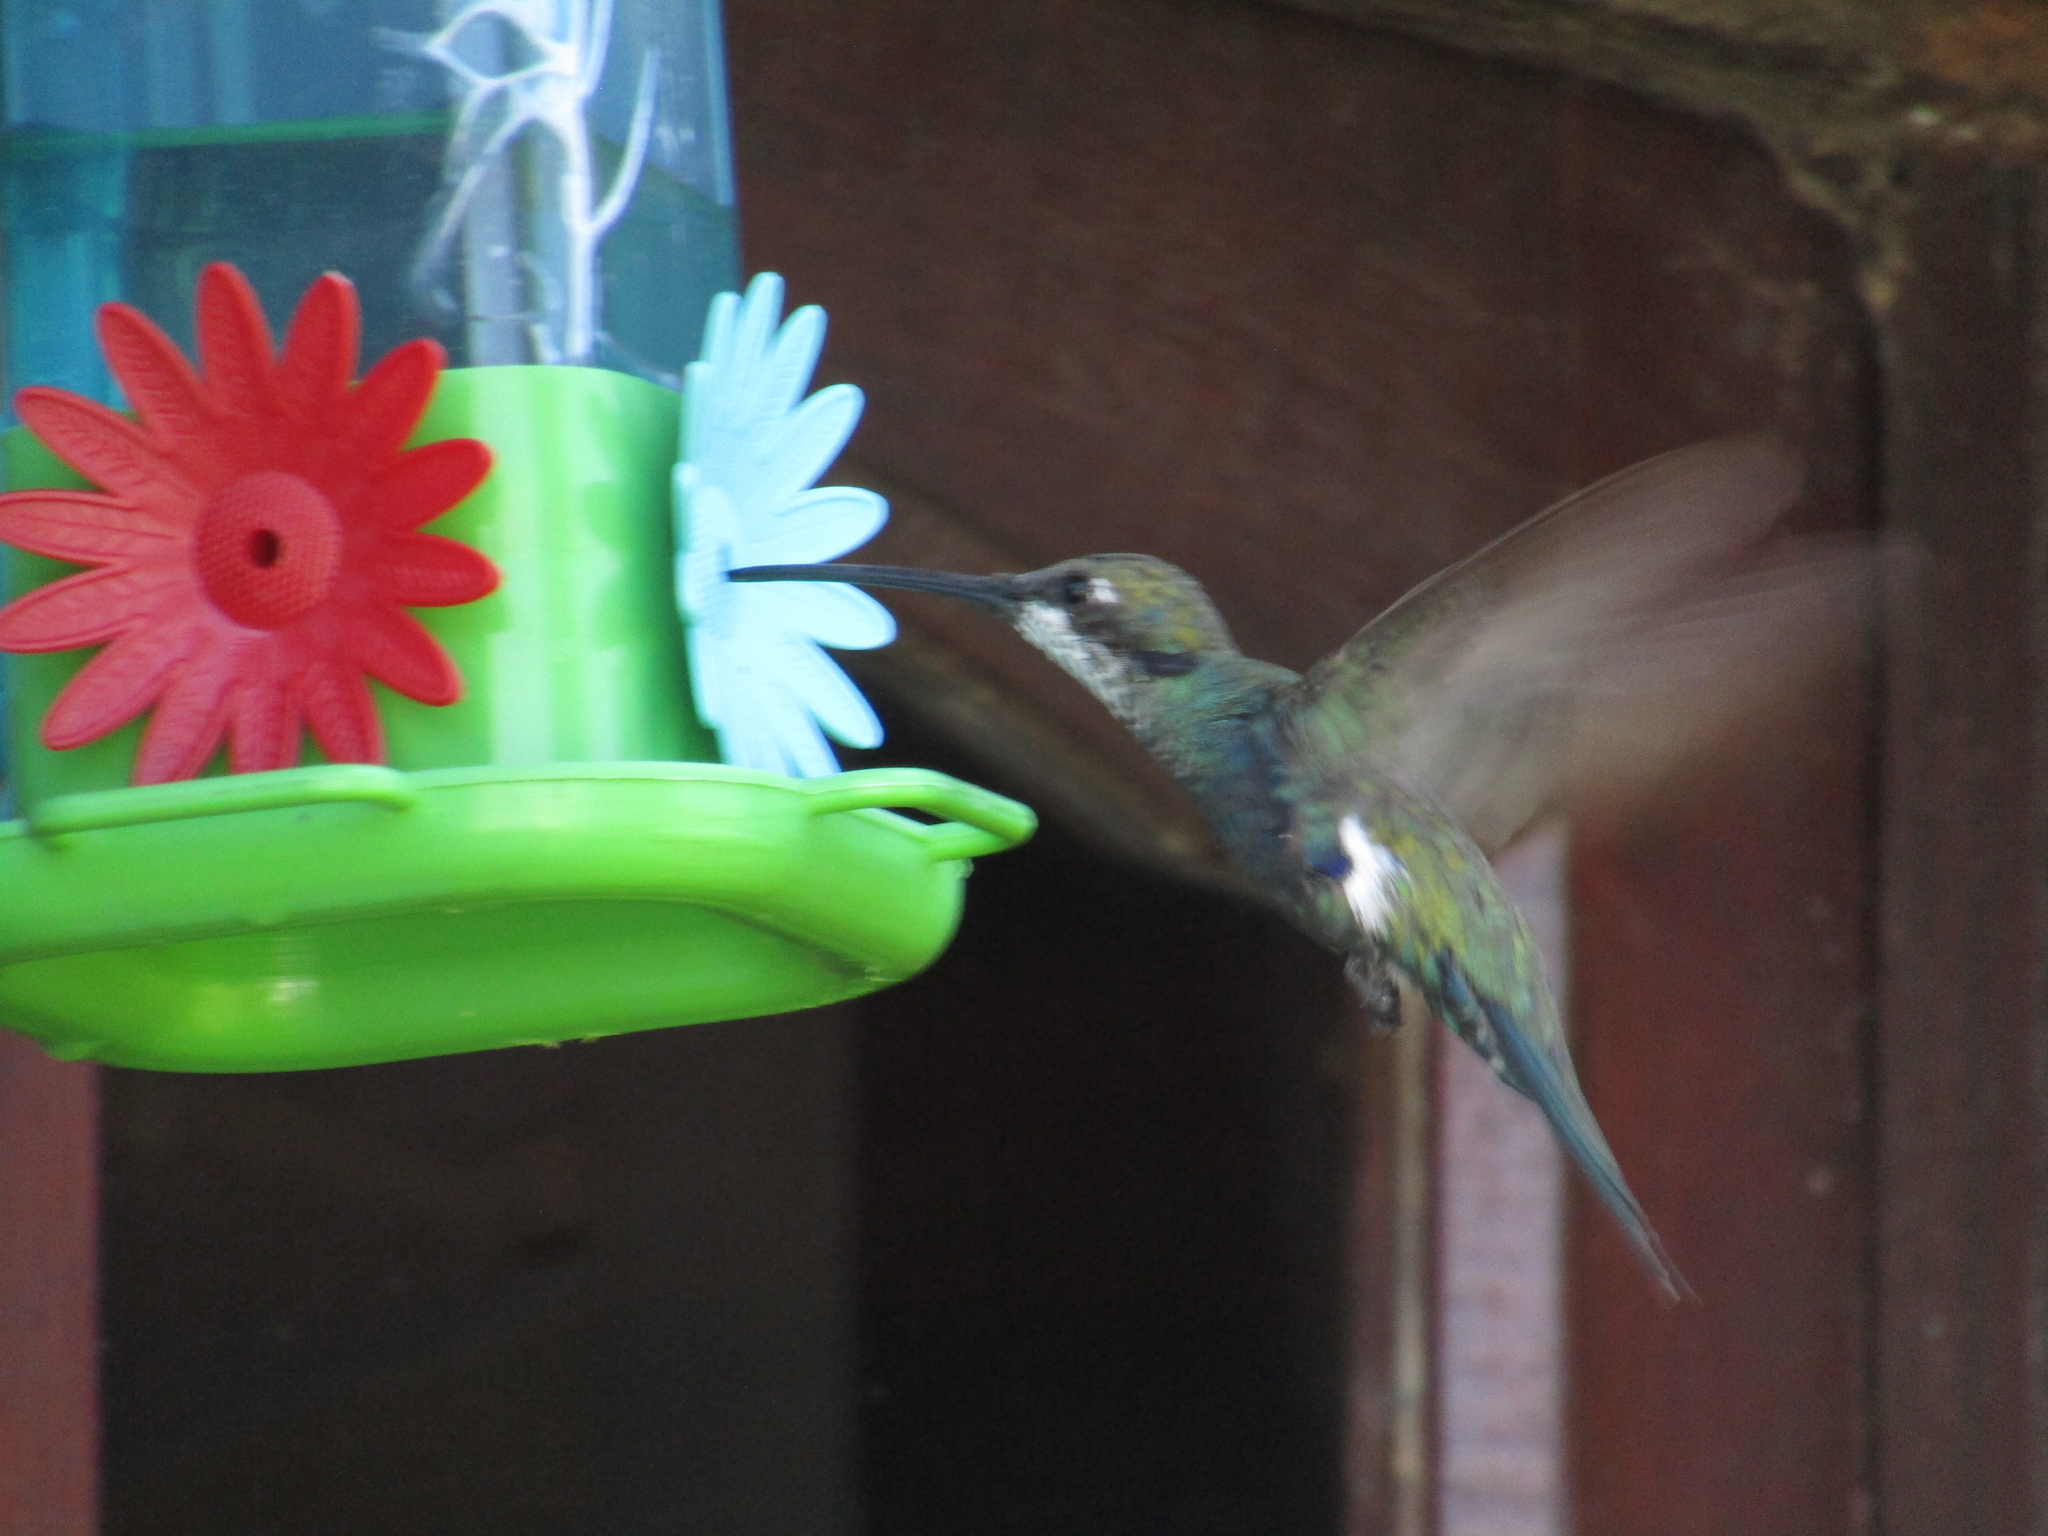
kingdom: Animalia
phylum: Chordata
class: Aves
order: Apodiformes
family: Trochilidae
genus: Heliomaster
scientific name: Heliomaster furcifer
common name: Blue-tufted starthroat
